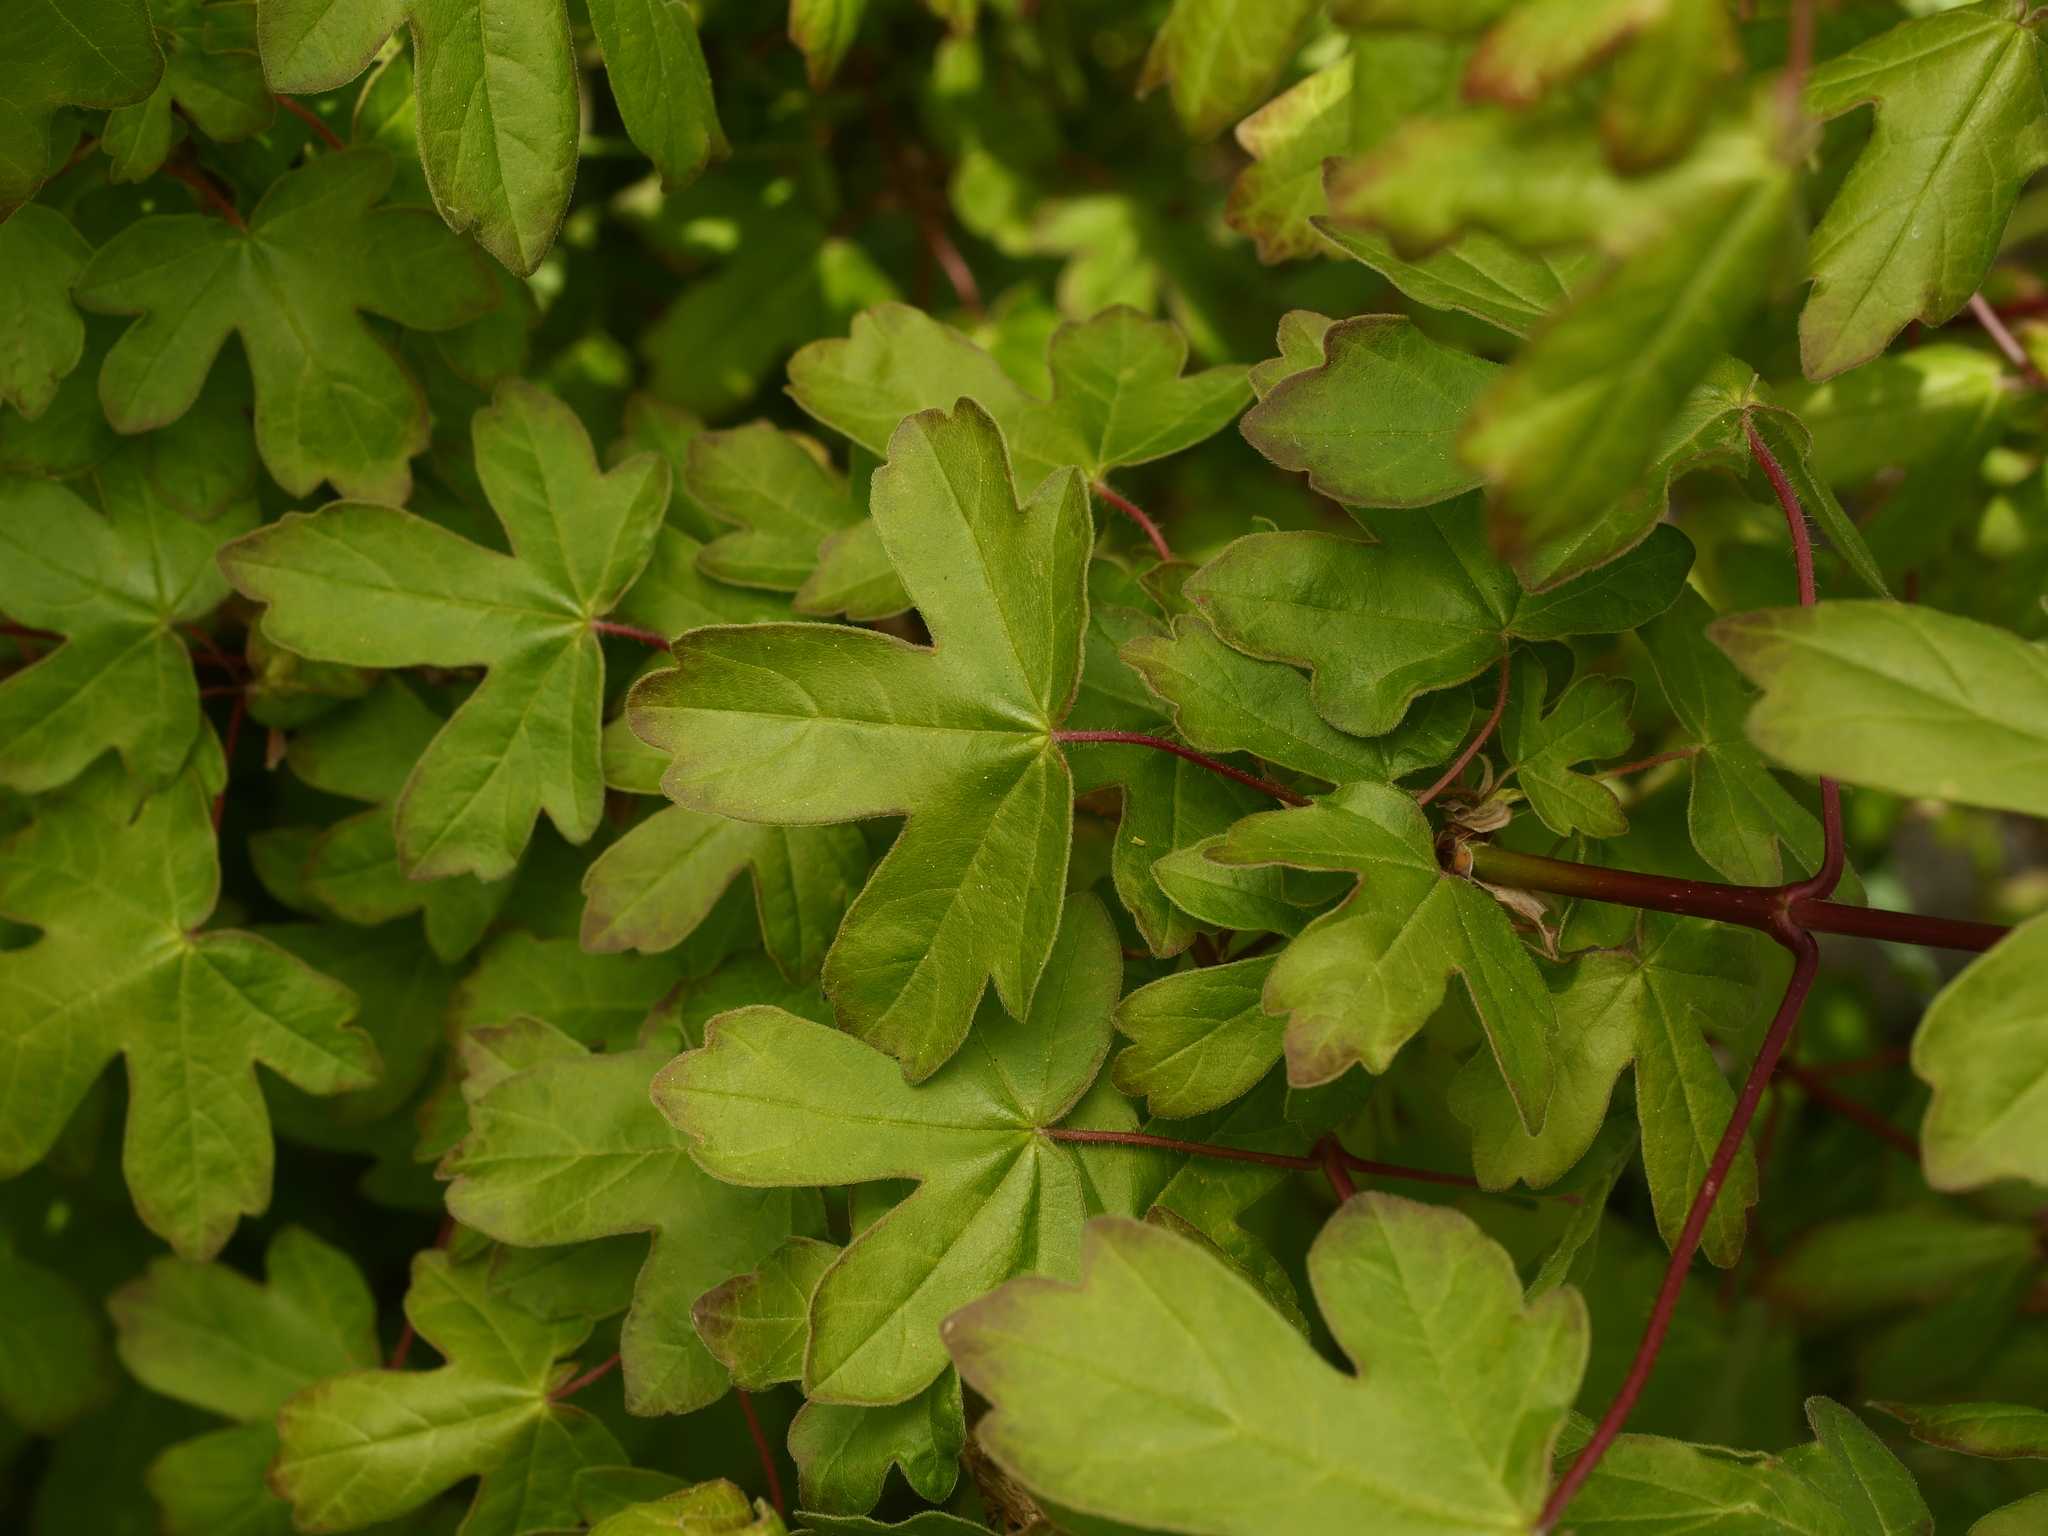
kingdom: Plantae
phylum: Tracheophyta
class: Magnoliopsida
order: Sapindales
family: Sapindaceae
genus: Acer
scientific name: Acer campestre
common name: Field maple
